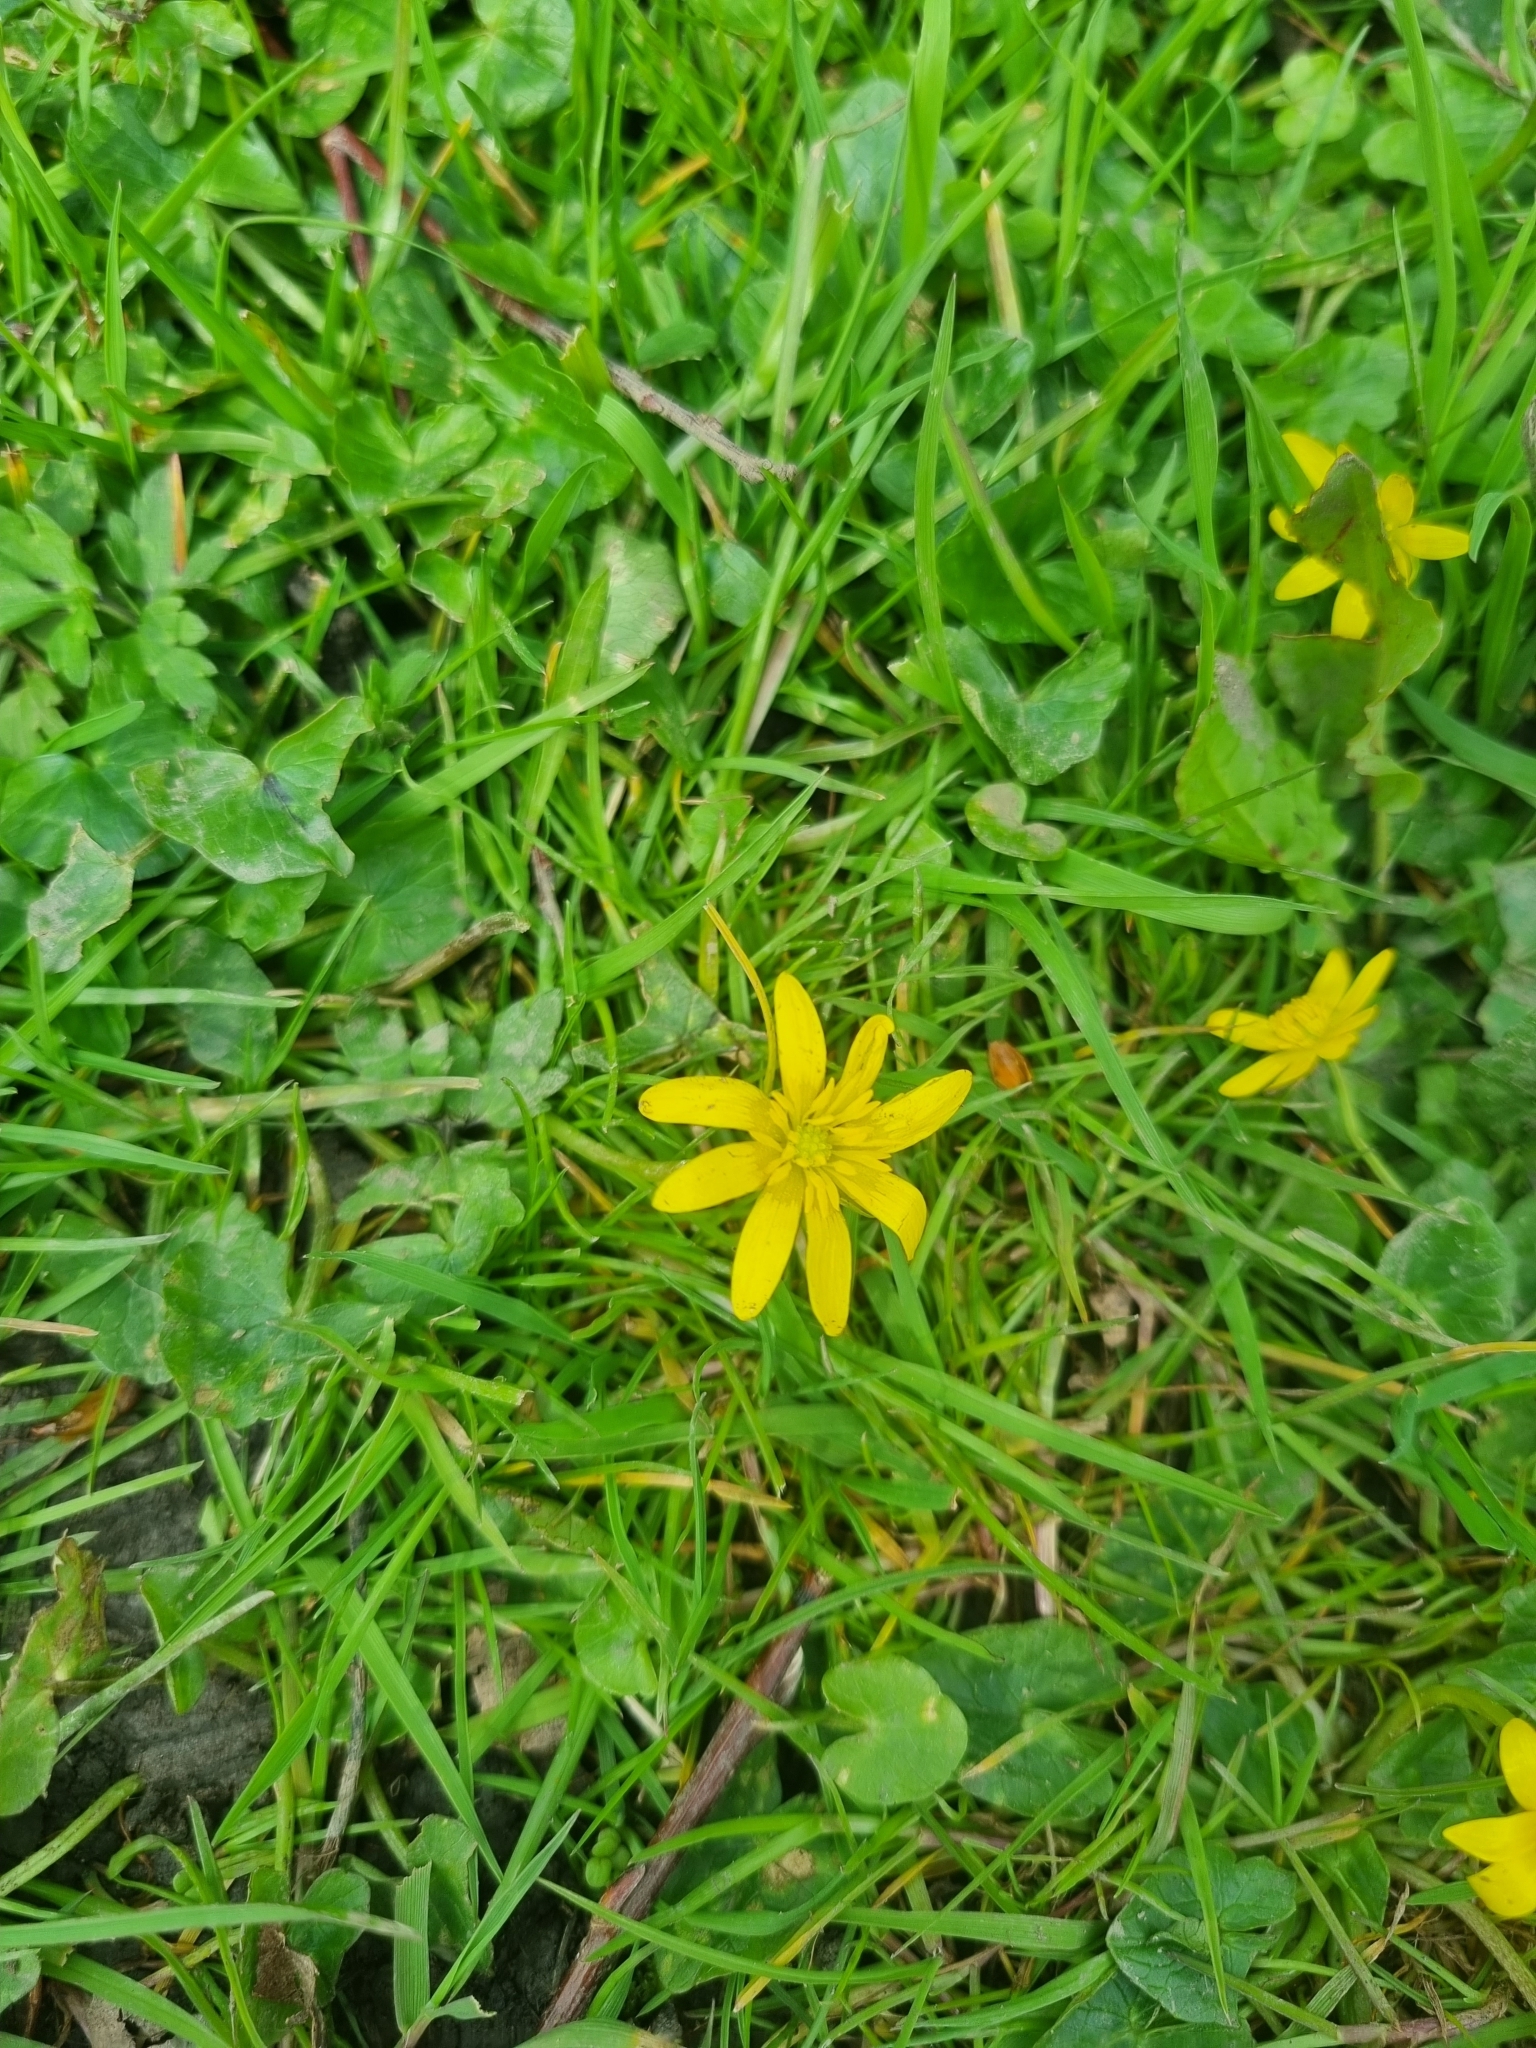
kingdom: Plantae
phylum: Tracheophyta
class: Magnoliopsida
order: Ranunculales
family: Ranunculaceae
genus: Ficaria
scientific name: Ficaria verna
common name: Lesser celandine
